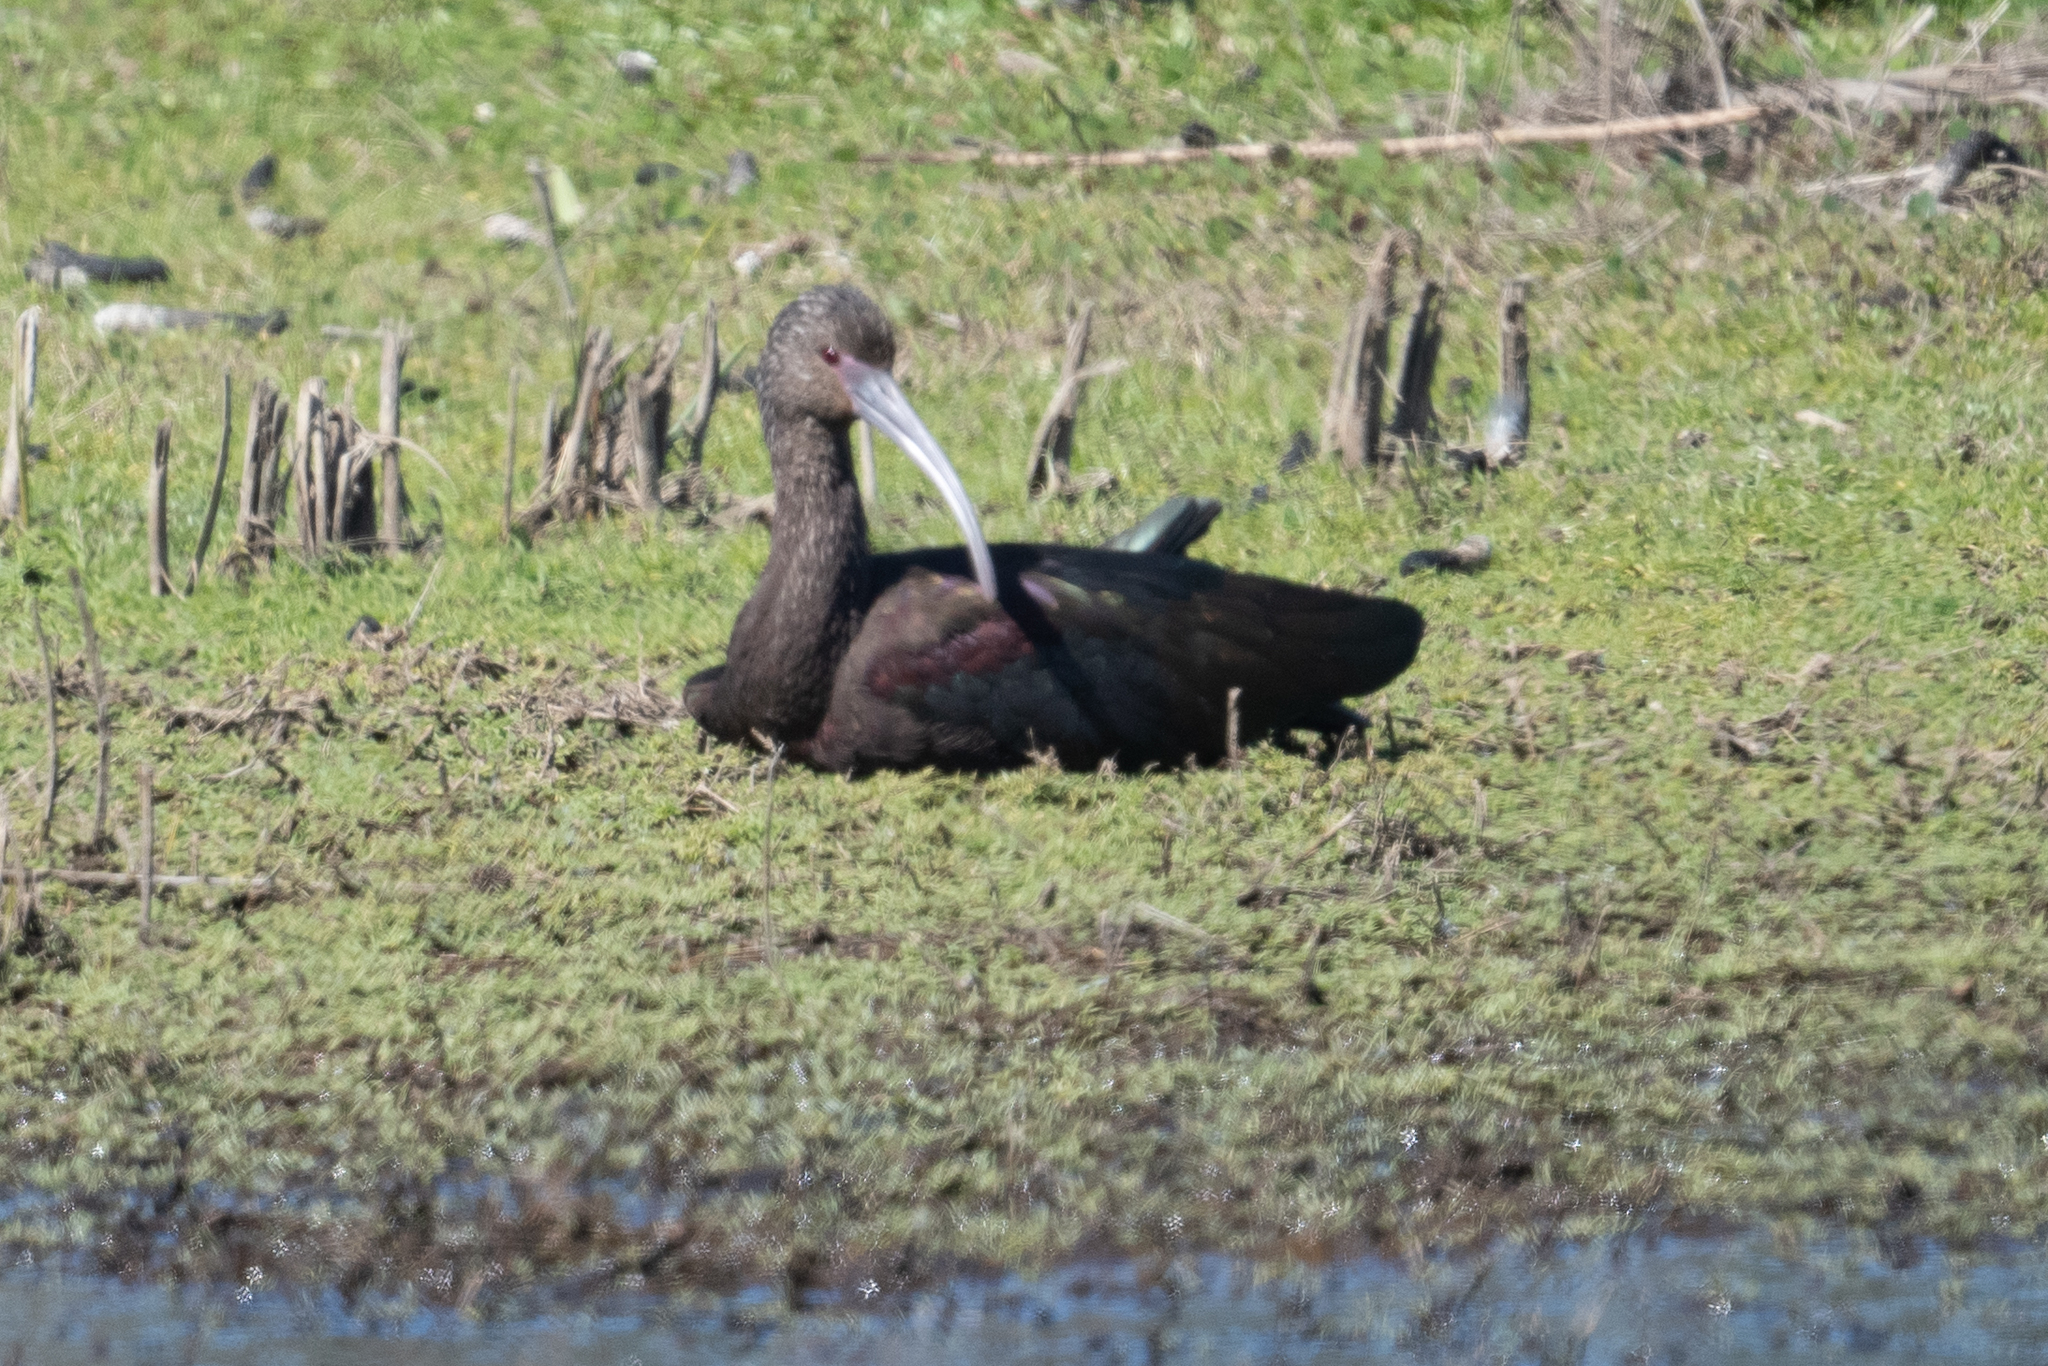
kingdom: Animalia
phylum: Chordata
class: Aves
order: Pelecaniformes
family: Threskiornithidae
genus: Plegadis
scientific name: Plegadis chihi
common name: White-faced ibis
